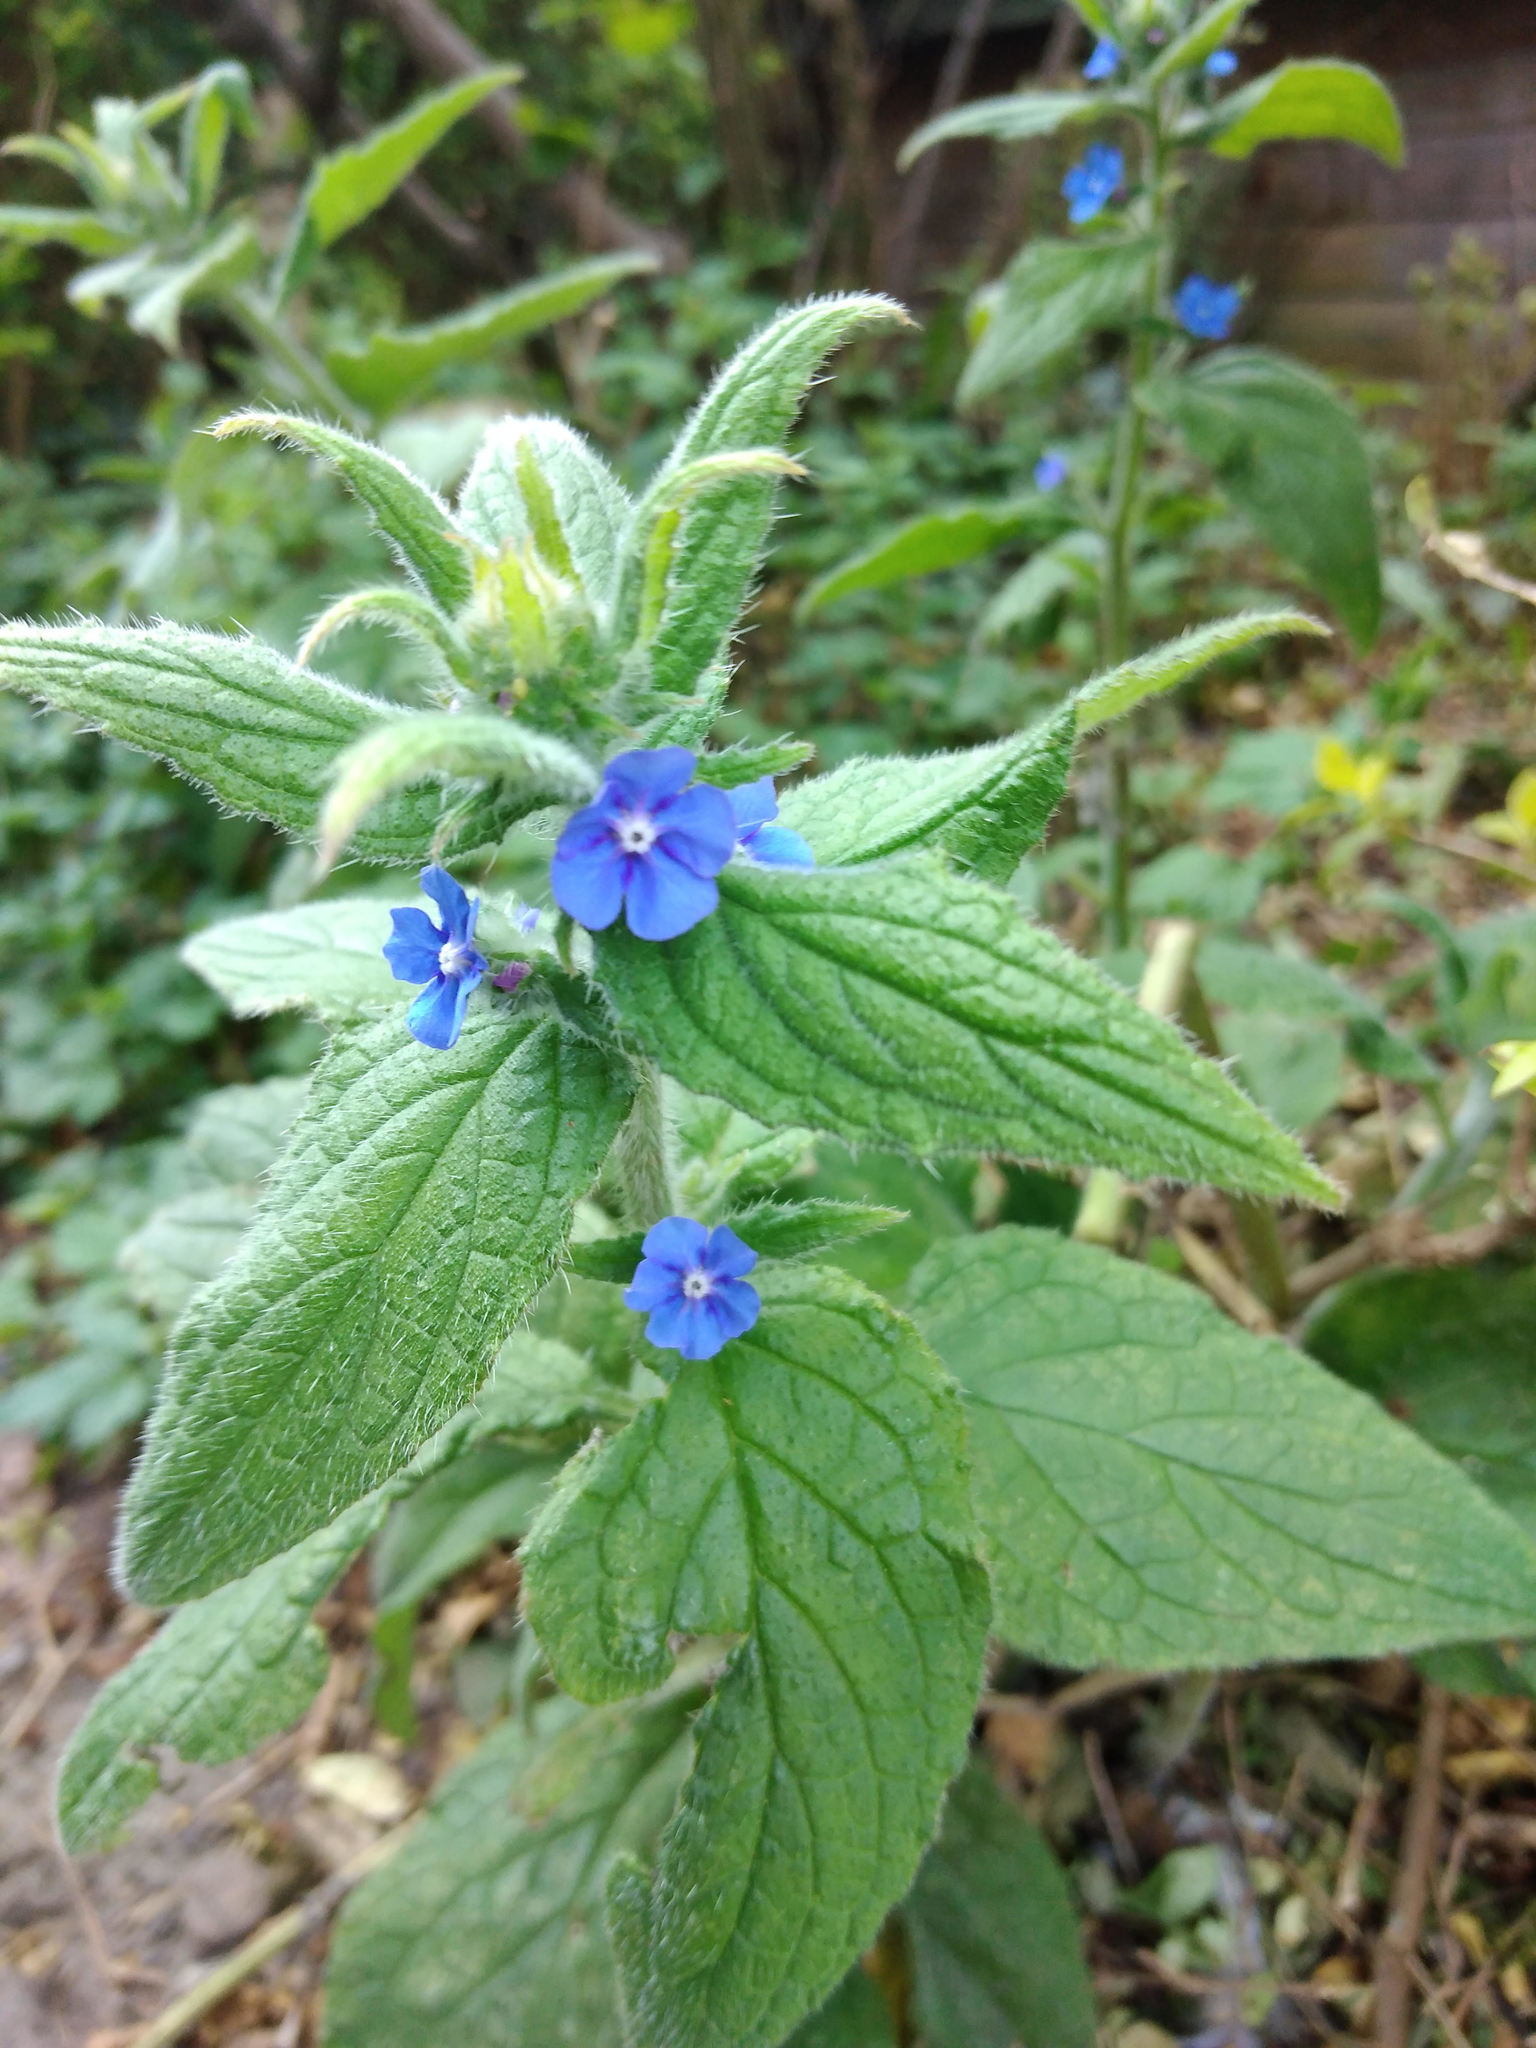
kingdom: Plantae
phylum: Tracheophyta
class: Magnoliopsida
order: Boraginales
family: Boraginaceae
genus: Pentaglottis
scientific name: Pentaglottis sempervirens
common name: Green alkanet
